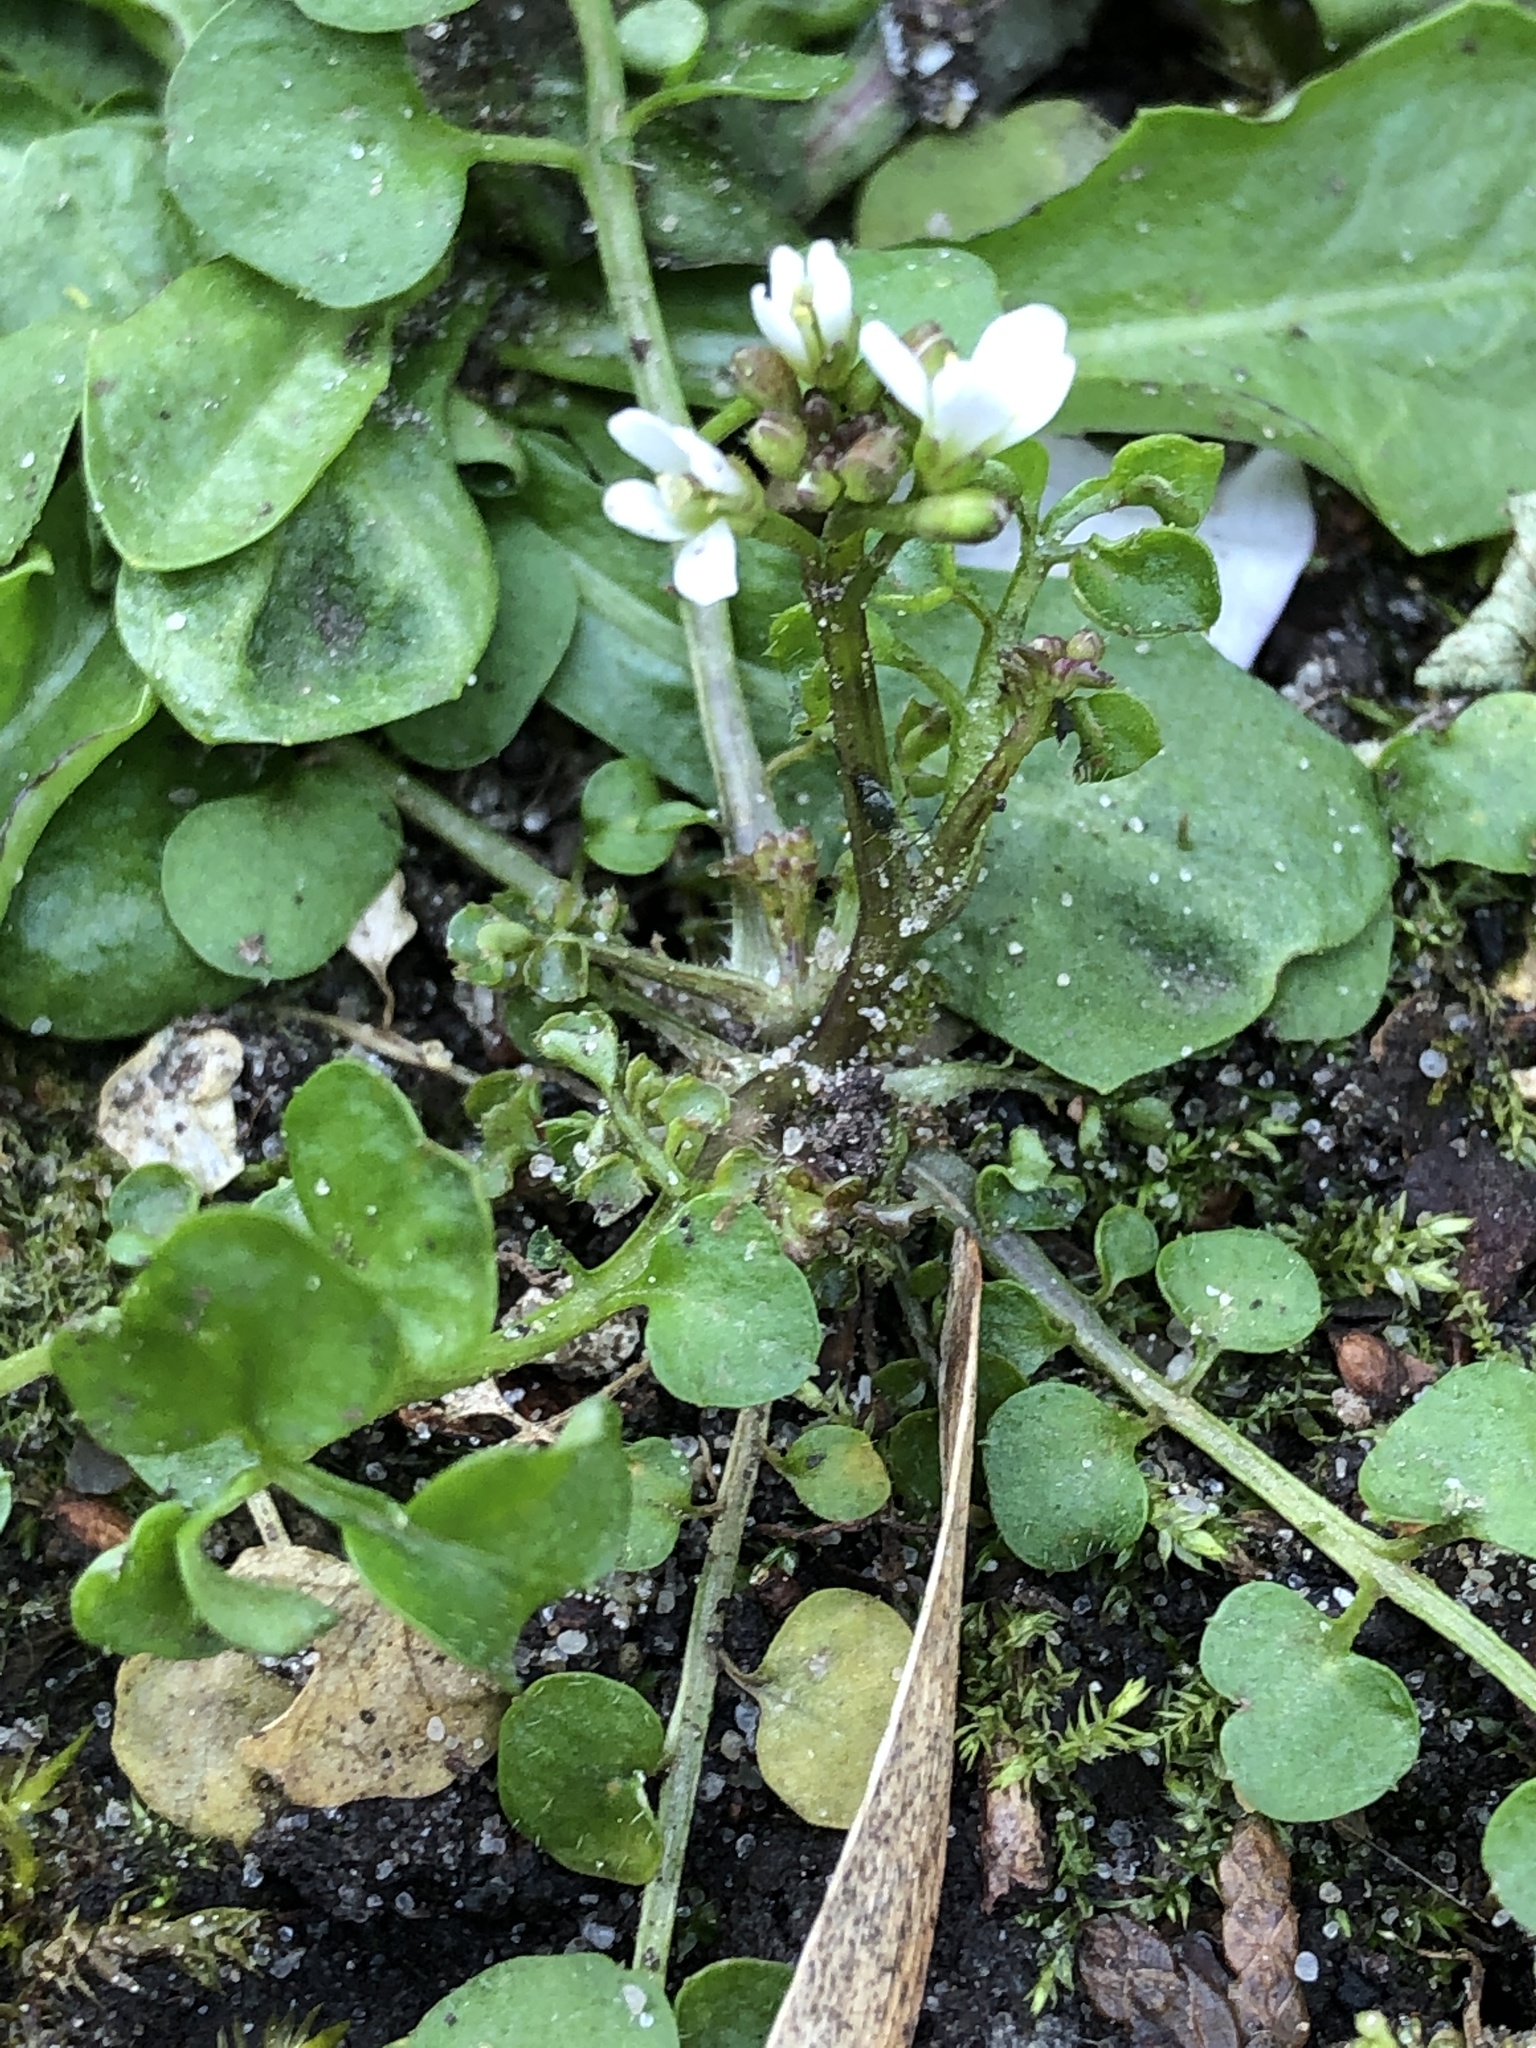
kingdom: Plantae
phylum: Tracheophyta
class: Magnoliopsida
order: Brassicales
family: Brassicaceae
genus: Cardamine
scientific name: Cardamine hirsuta
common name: Hairy bittercress
